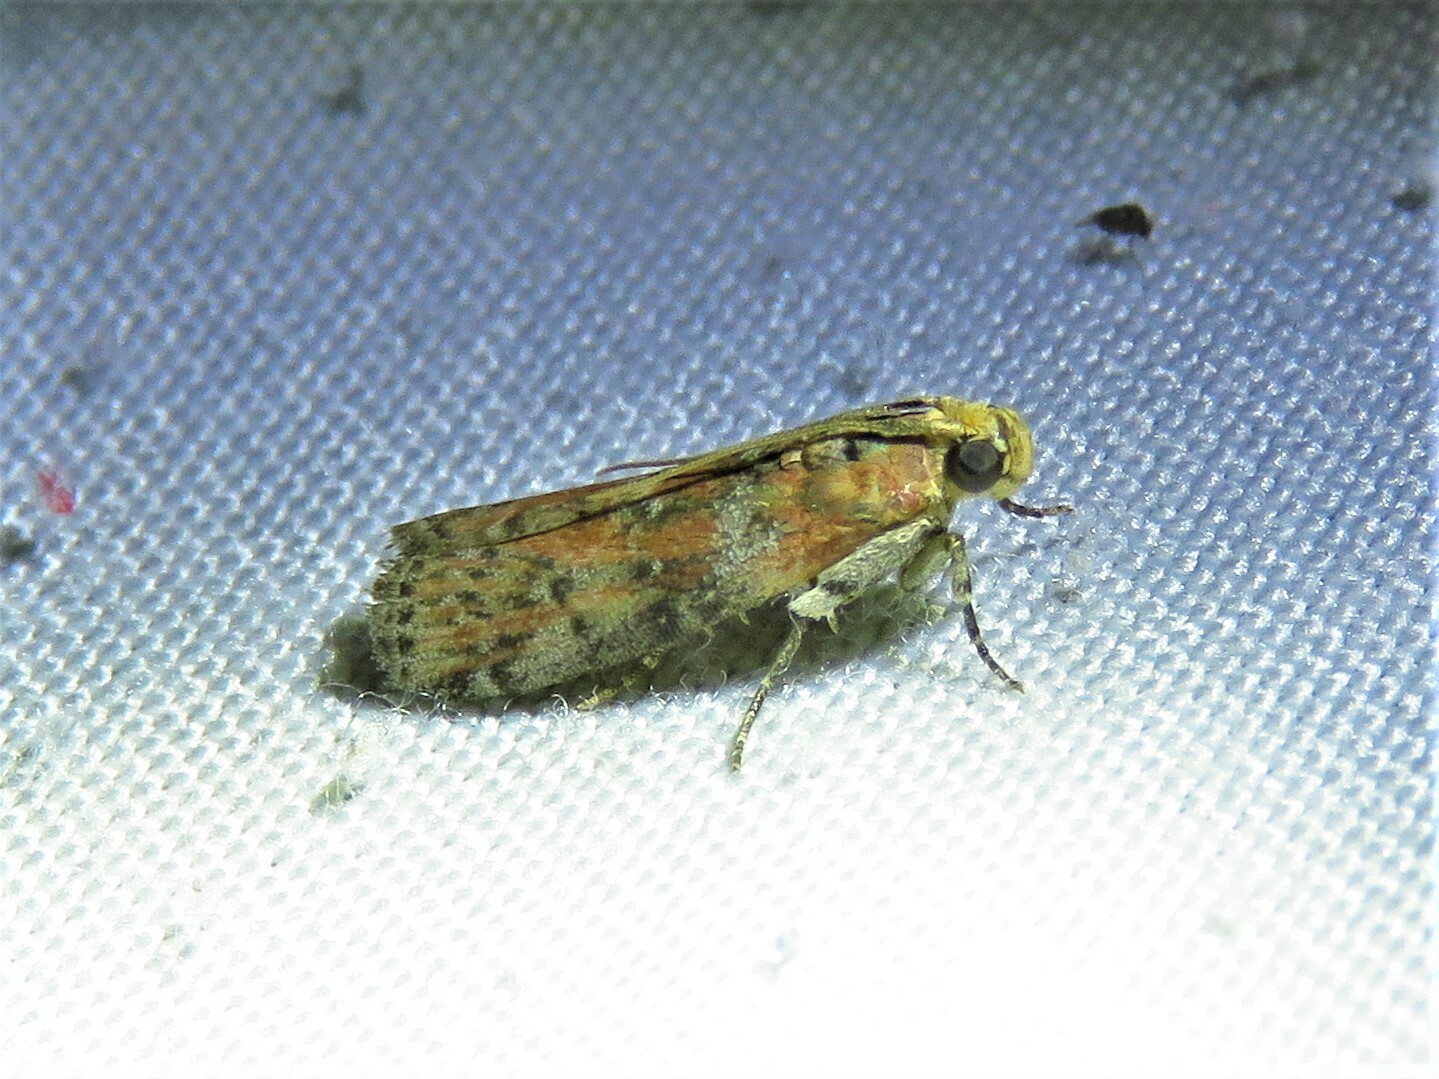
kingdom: Animalia
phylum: Arthropoda
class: Insecta
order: Lepidoptera
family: Pyralidae
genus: Sciota
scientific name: Sciota
